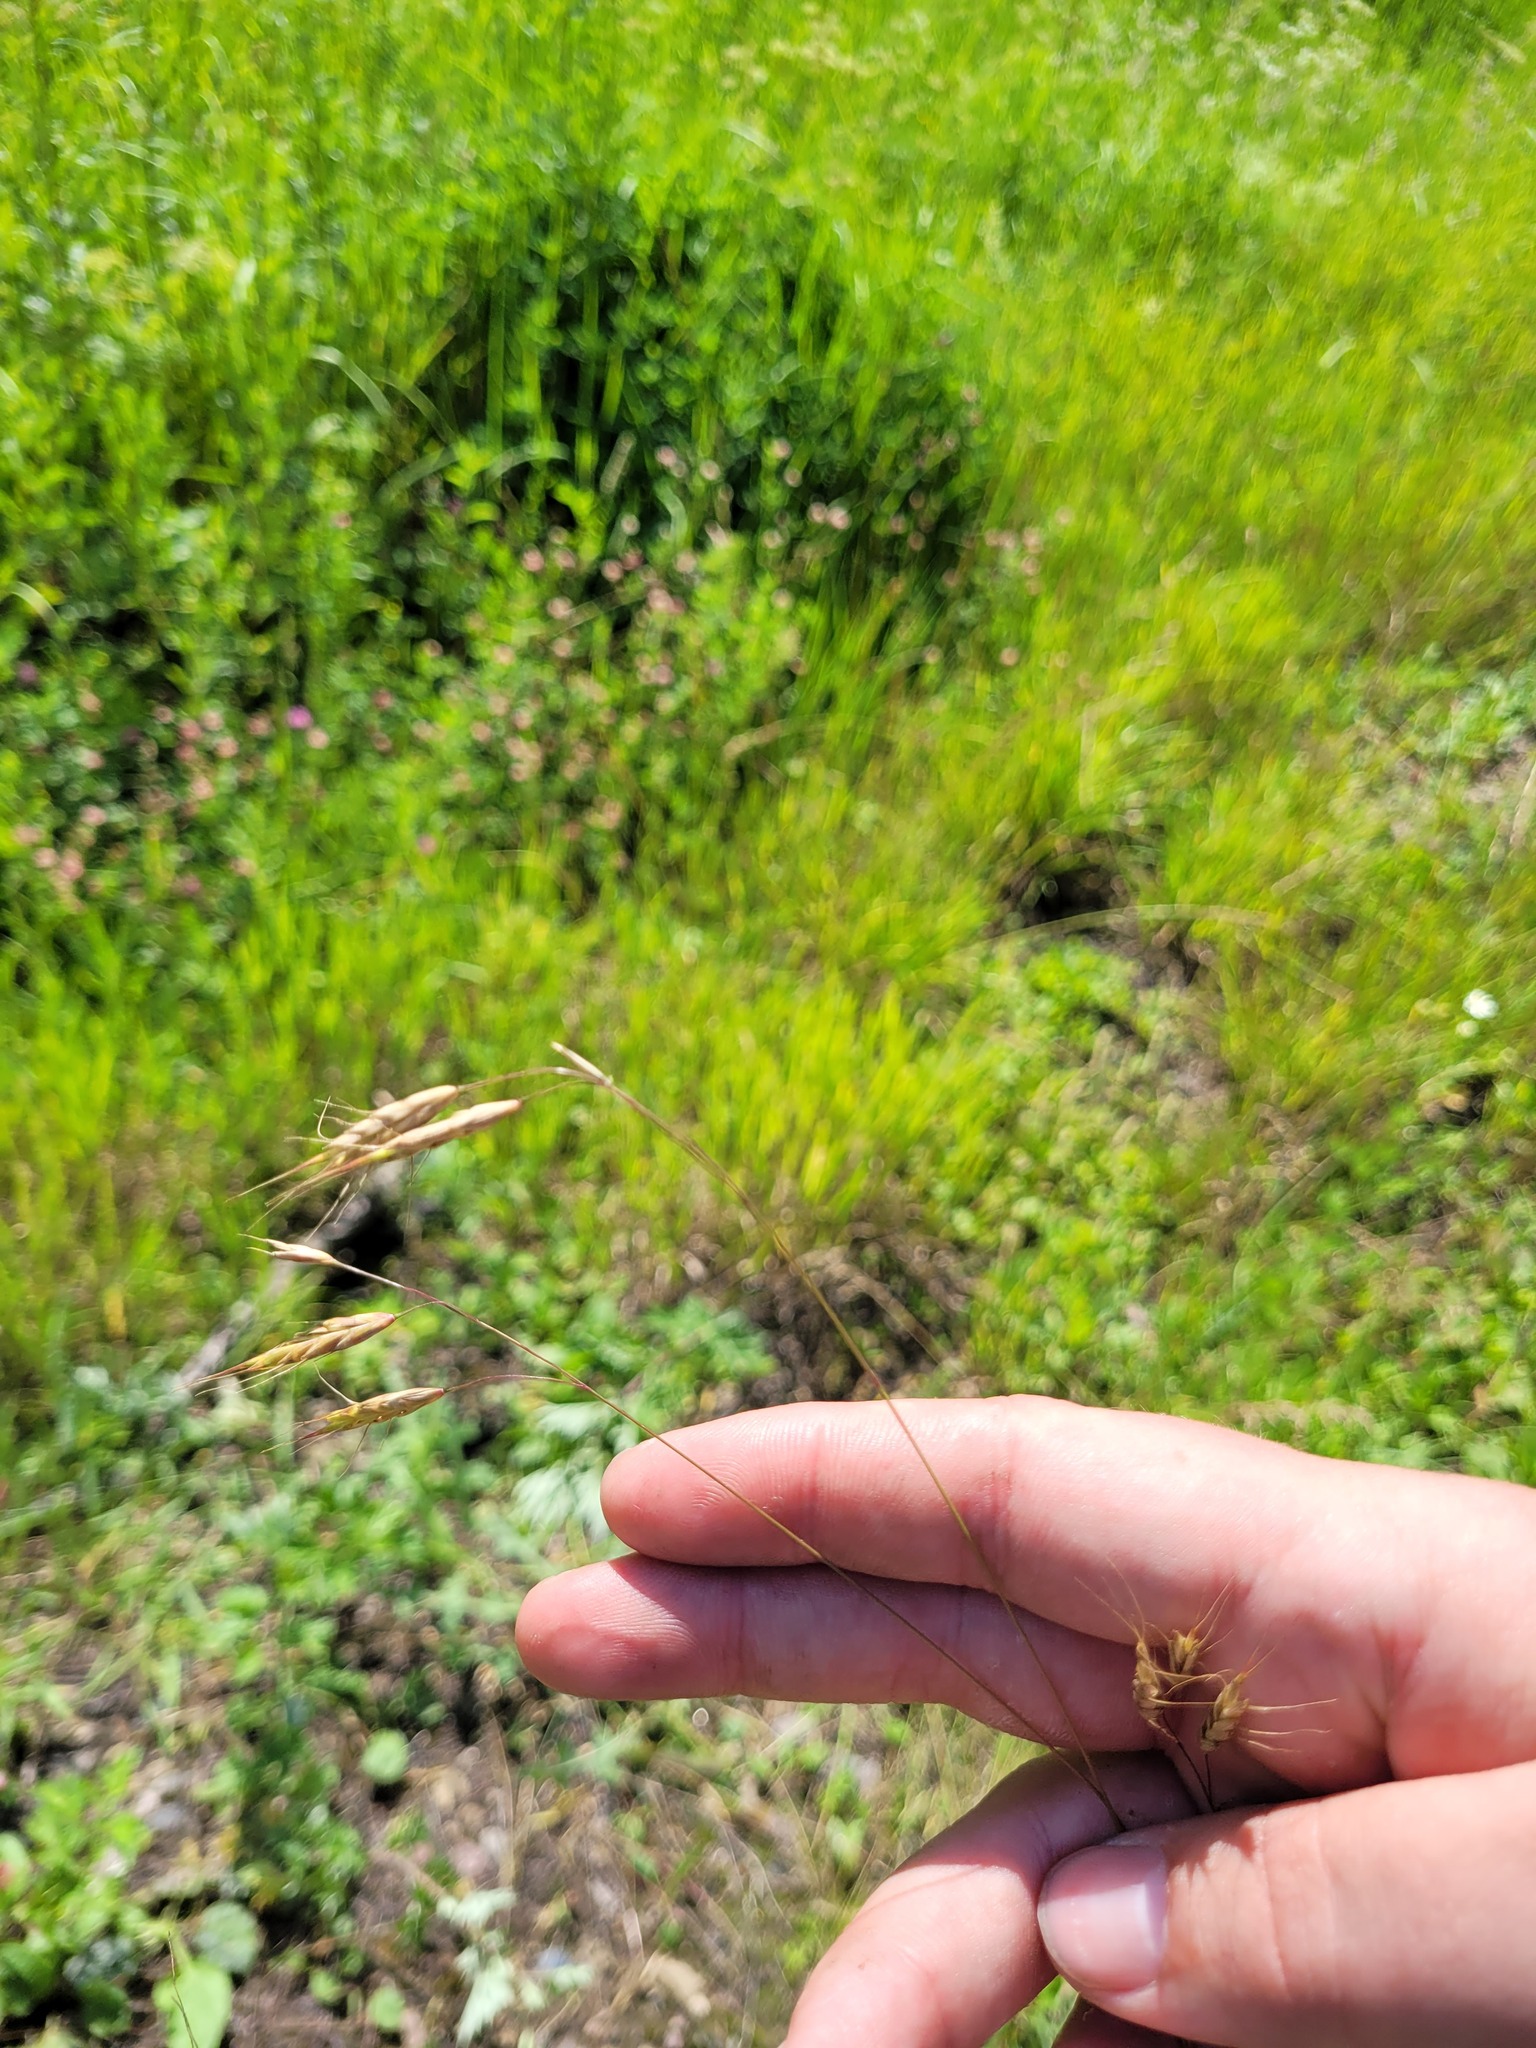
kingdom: Plantae
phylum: Tracheophyta
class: Liliopsida
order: Poales
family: Poaceae
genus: Bromus
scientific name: Bromus japonicus
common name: Japanese brome
